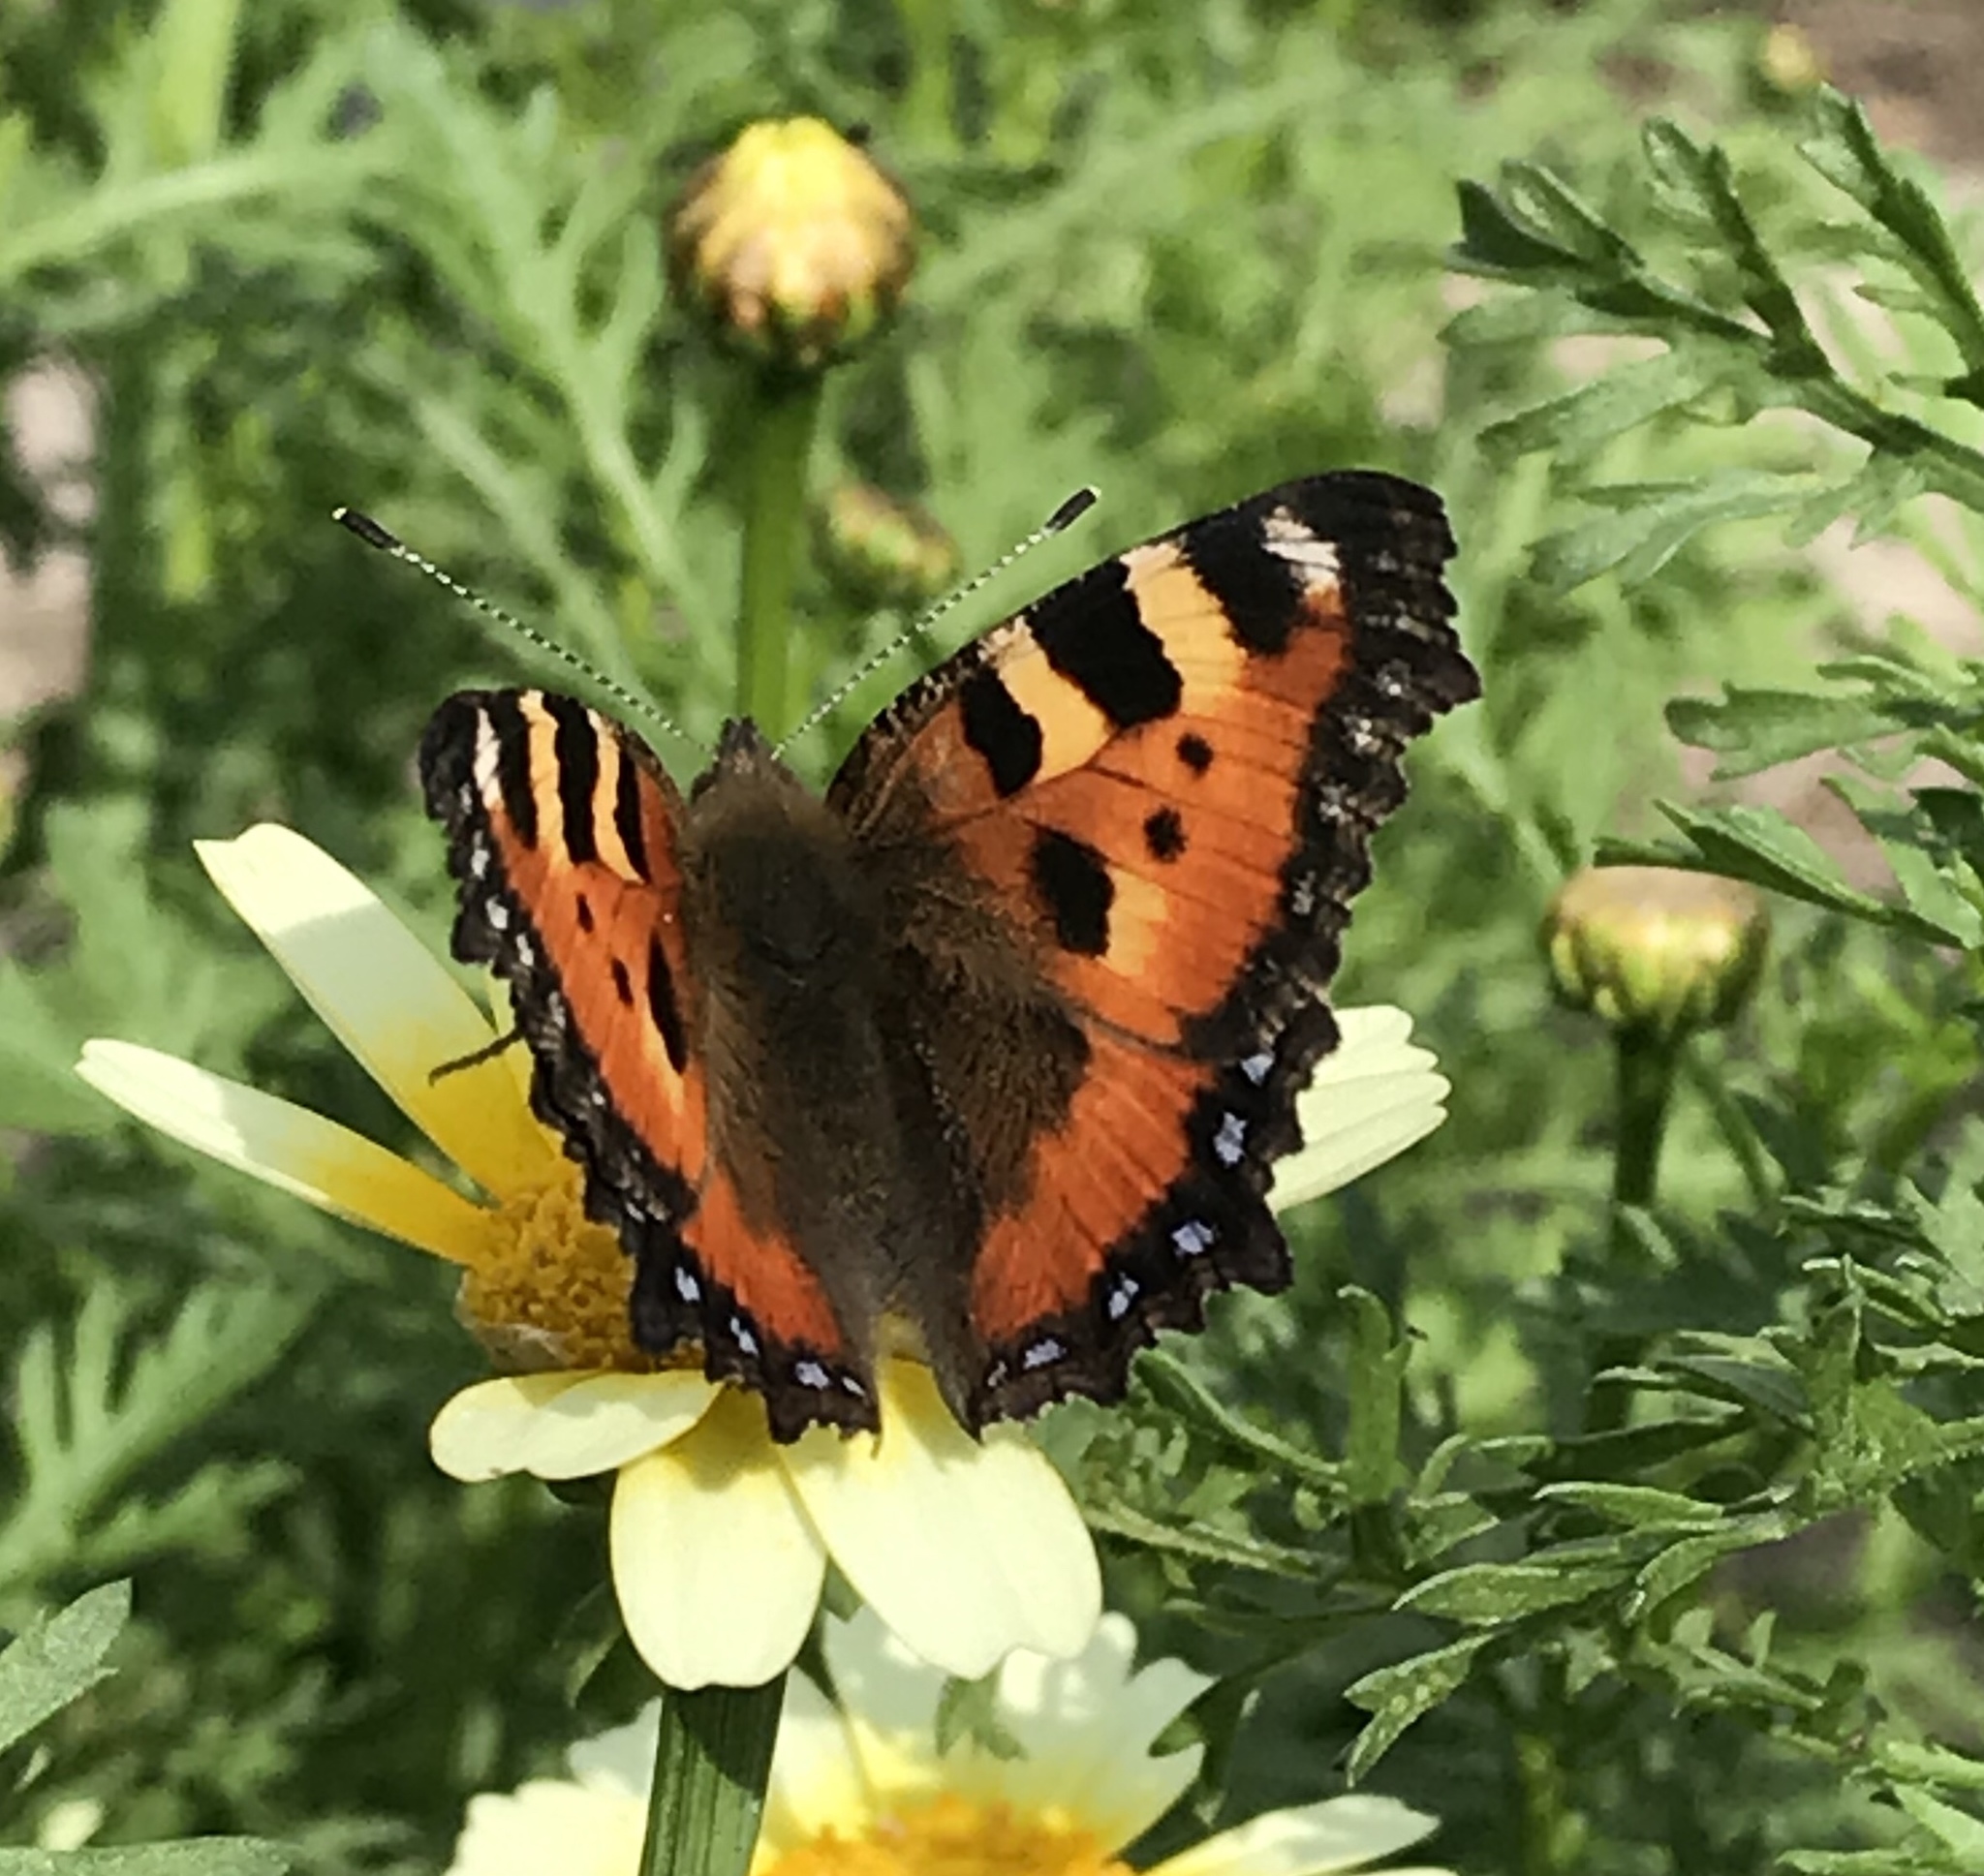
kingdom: Animalia
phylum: Arthropoda
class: Insecta
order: Lepidoptera
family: Nymphalidae
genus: Aglais
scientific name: Aglais urticae
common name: Small tortoiseshell
